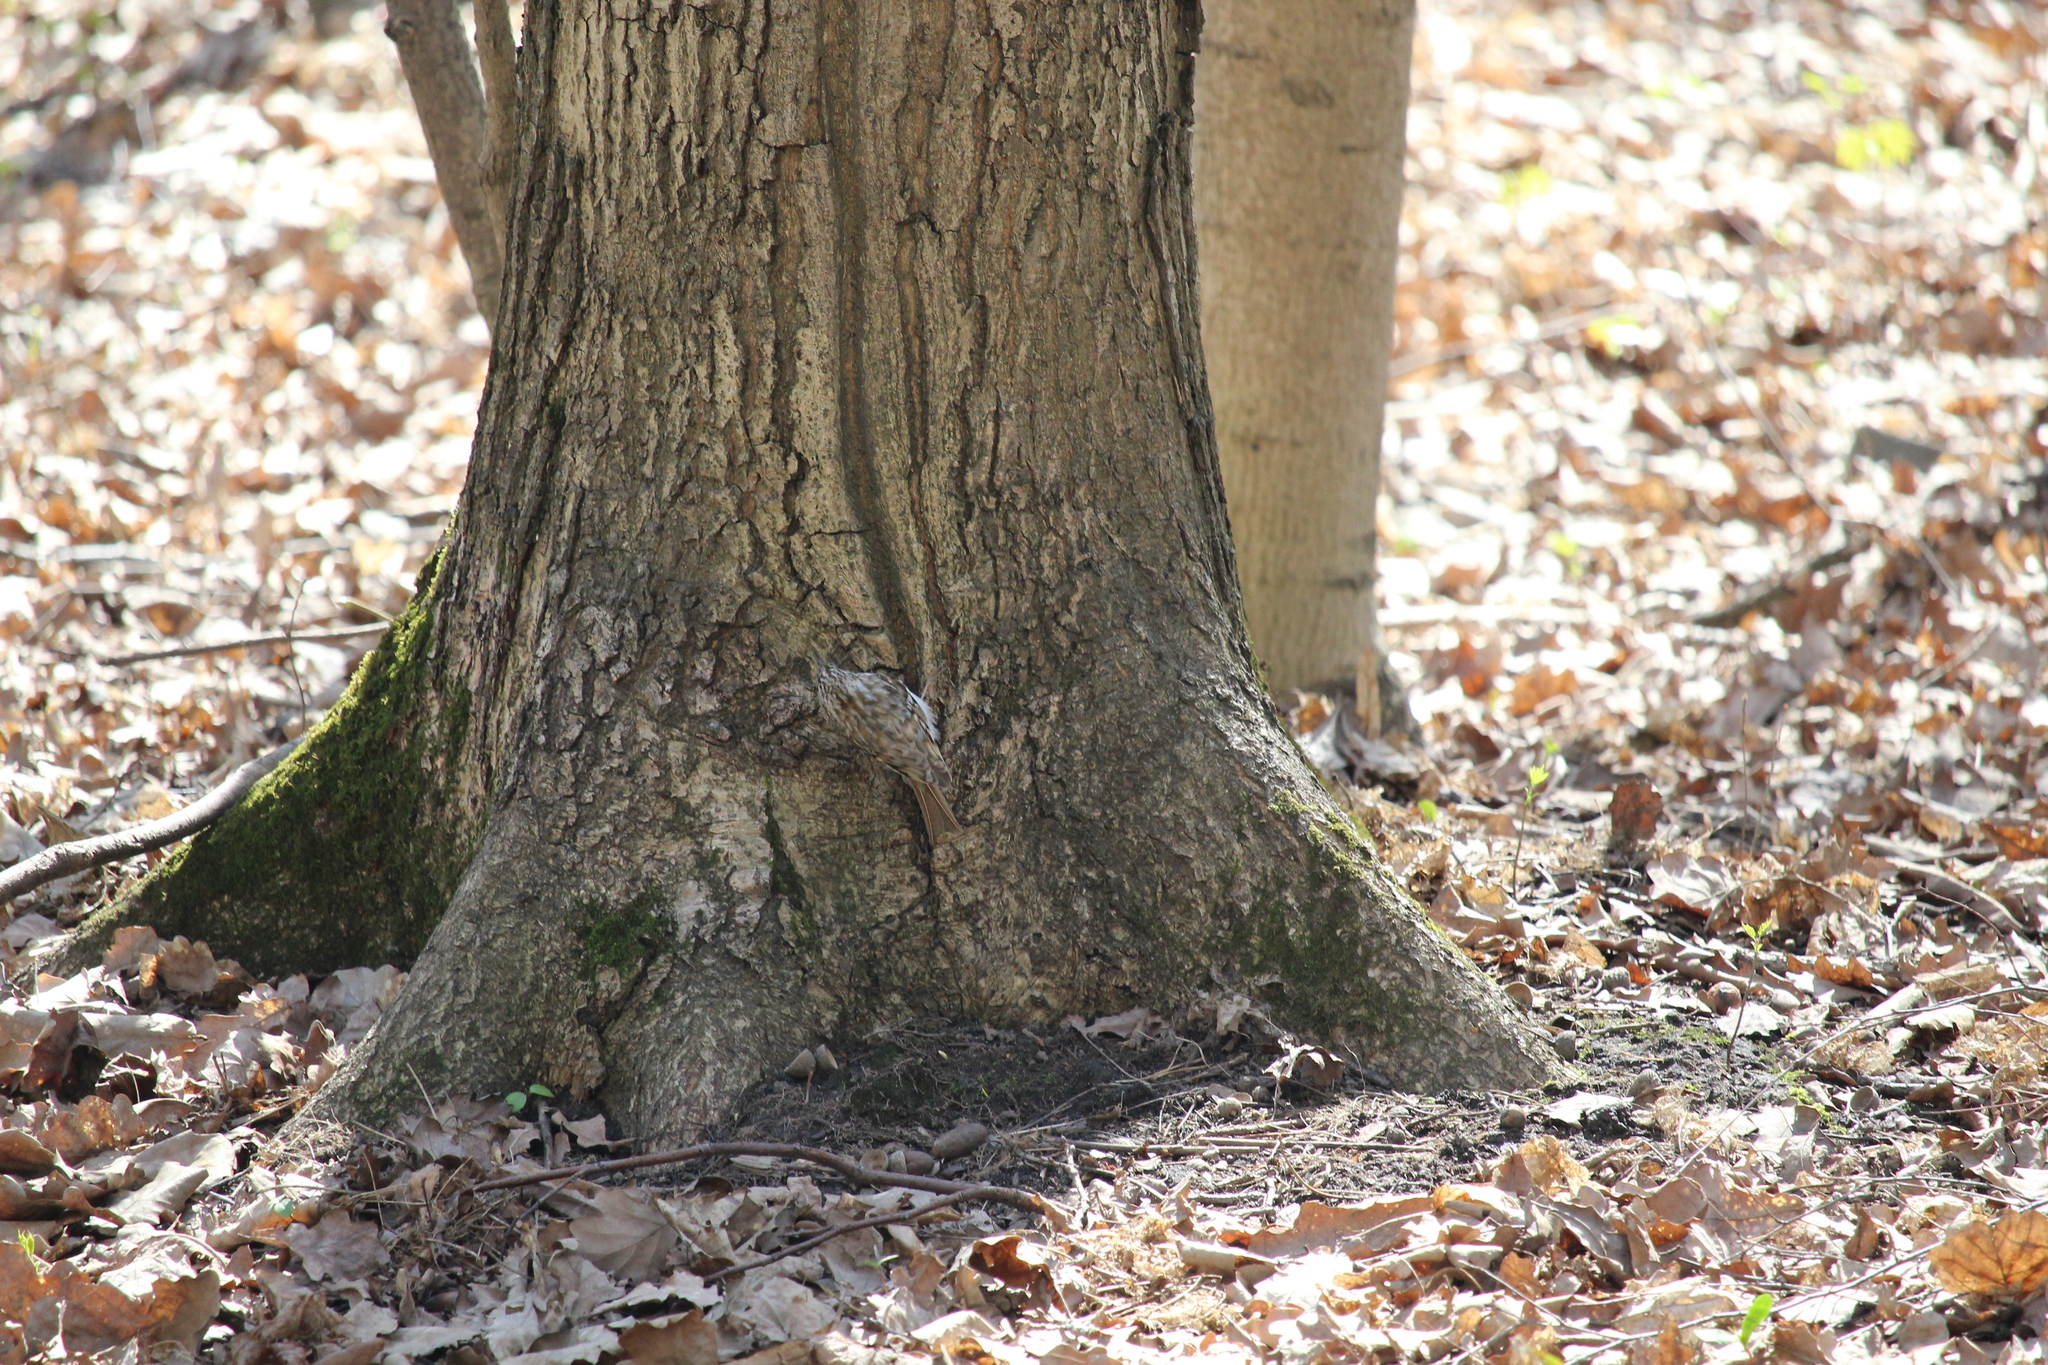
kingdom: Animalia
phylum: Chordata
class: Aves
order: Passeriformes
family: Certhiidae
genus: Certhia
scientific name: Certhia familiaris
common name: Eurasian treecreeper
